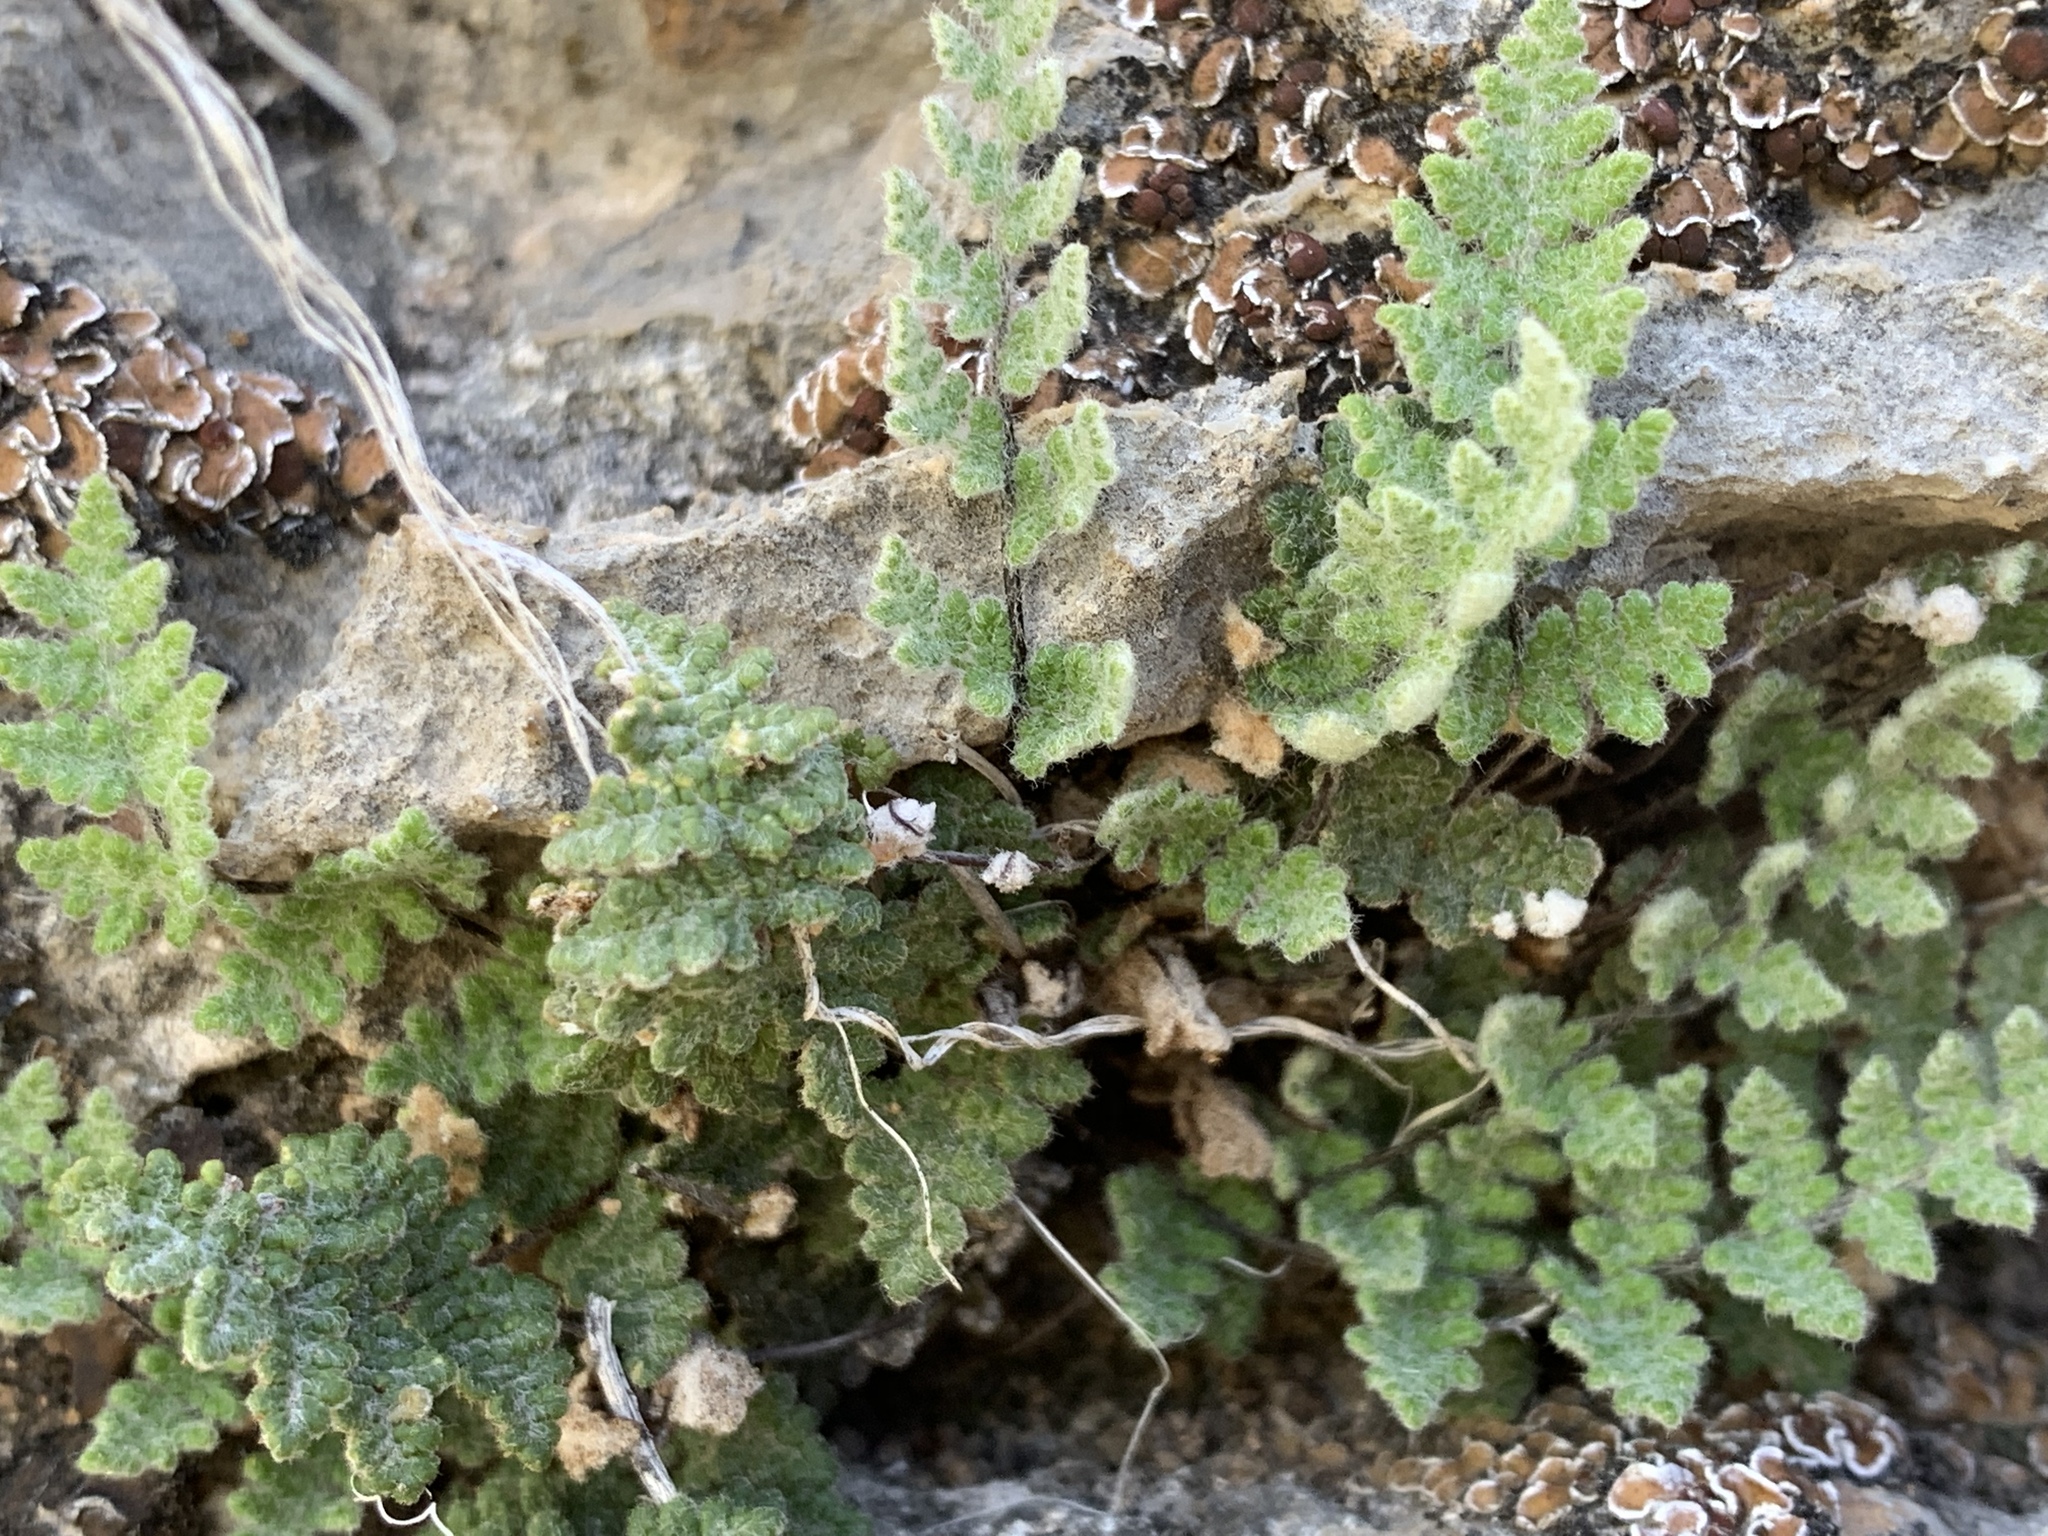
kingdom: Plantae
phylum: Tracheophyta
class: Polypodiopsida
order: Polypodiales
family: Pteridaceae
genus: Myriopteris
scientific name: Myriopteris gracilis
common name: Fee's lip fern
